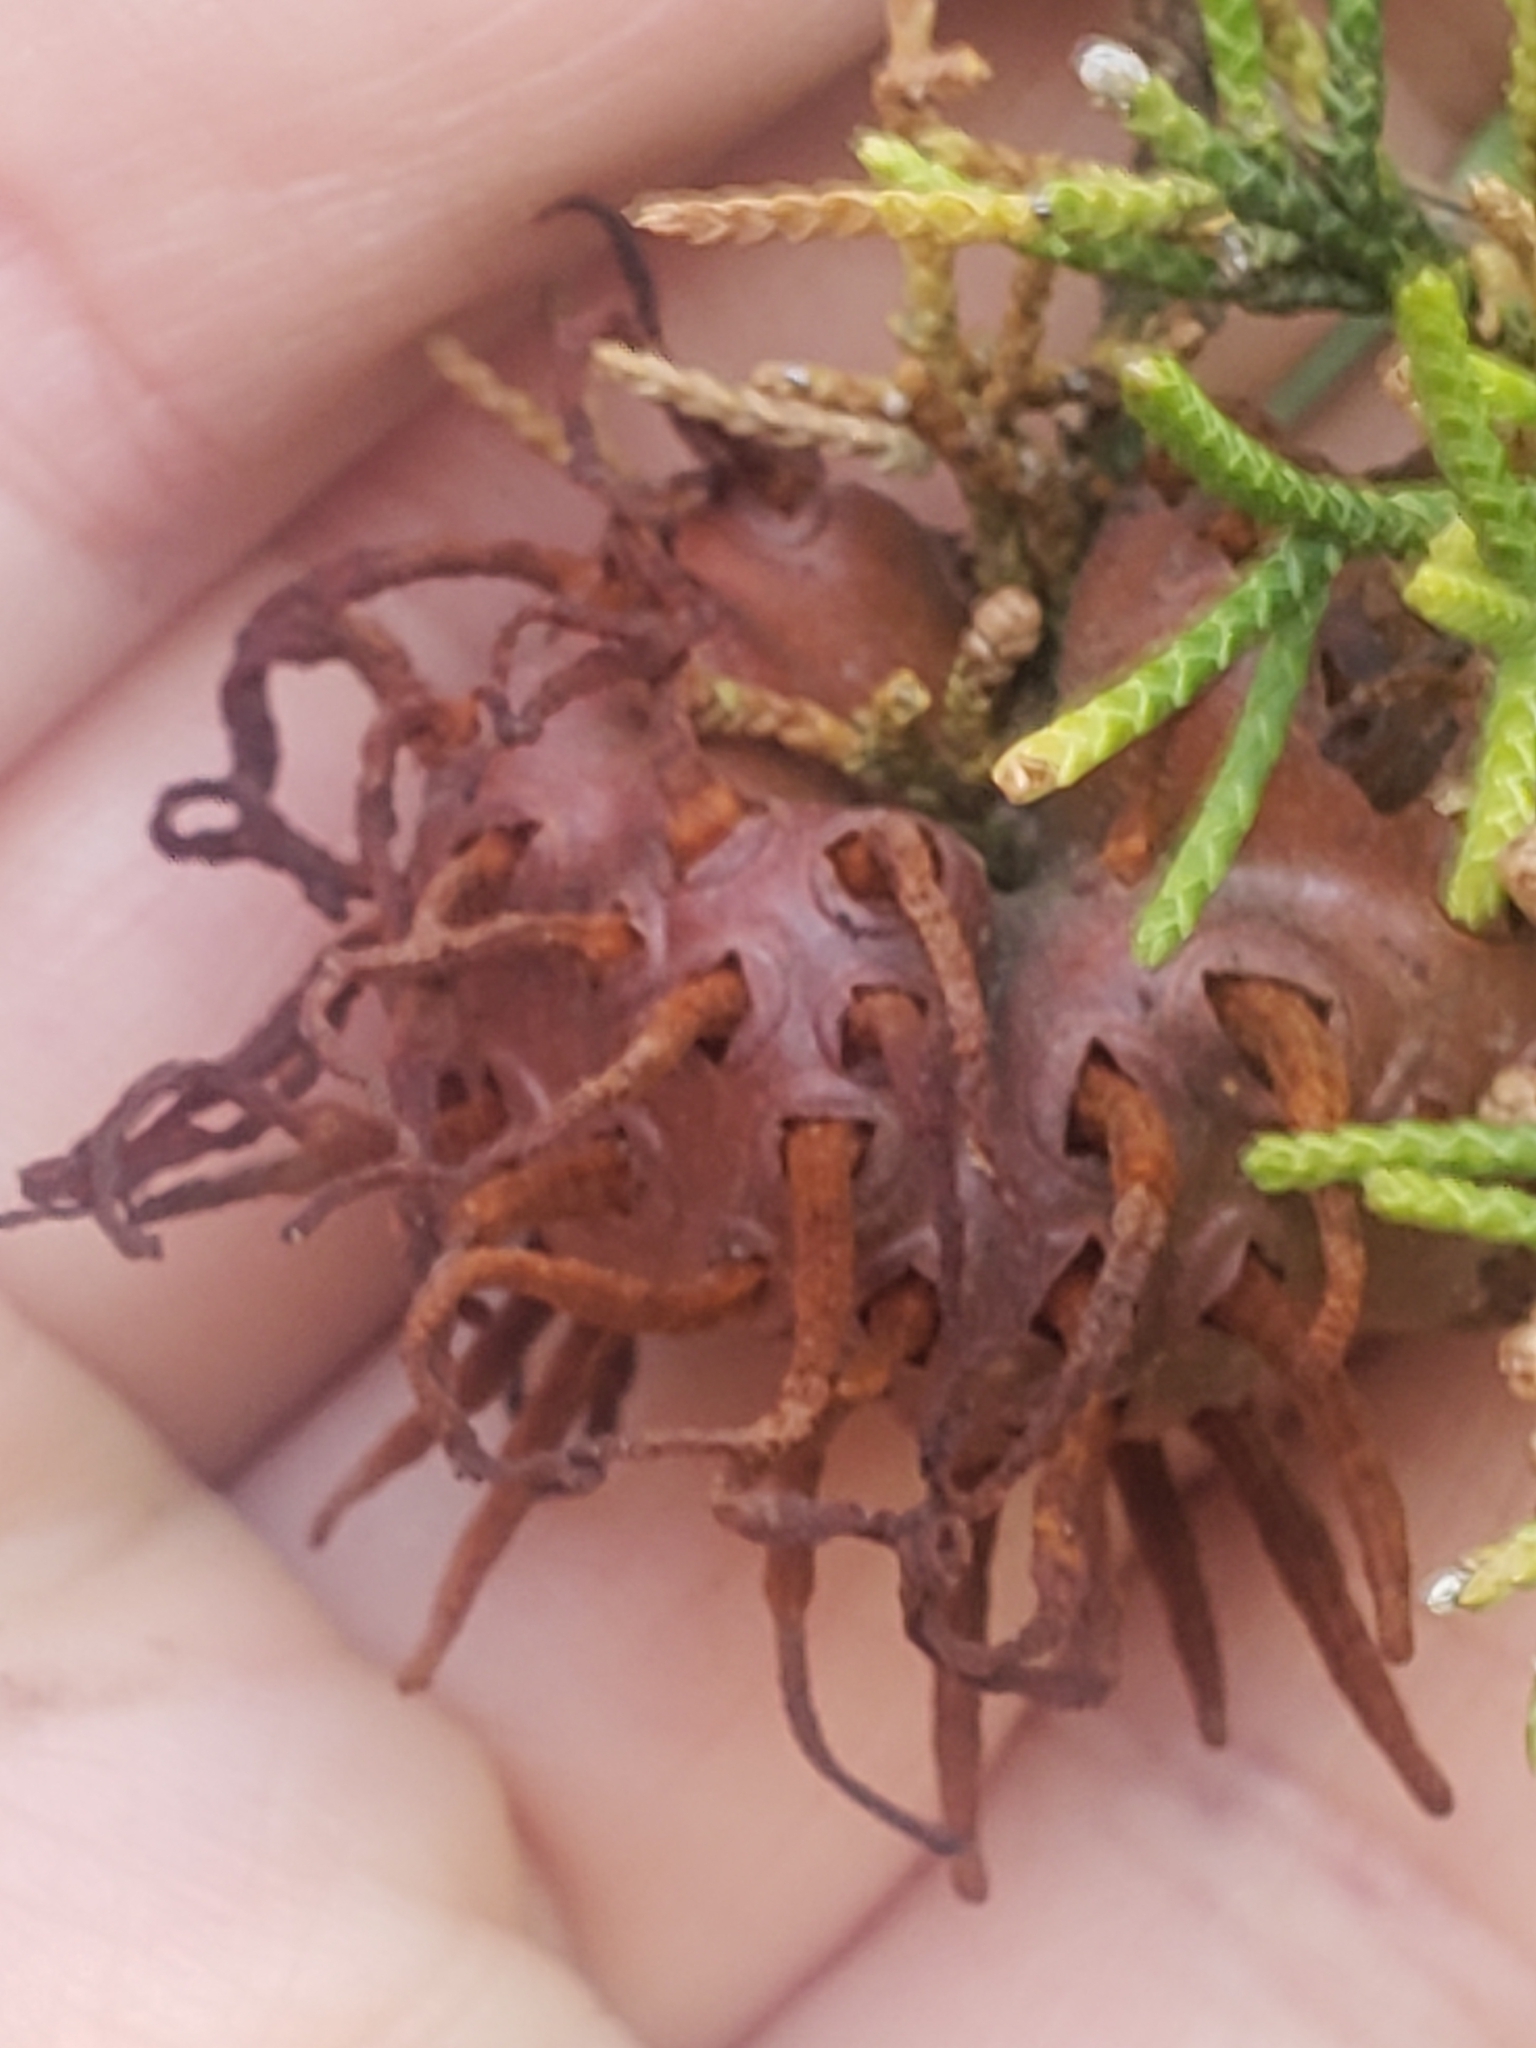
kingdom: Fungi
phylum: Basidiomycota
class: Pucciniomycetes
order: Pucciniales
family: Gymnosporangiaceae
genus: Gymnosporangium
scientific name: Gymnosporangium juniperi-virginianae
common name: Juniper-apple rust
